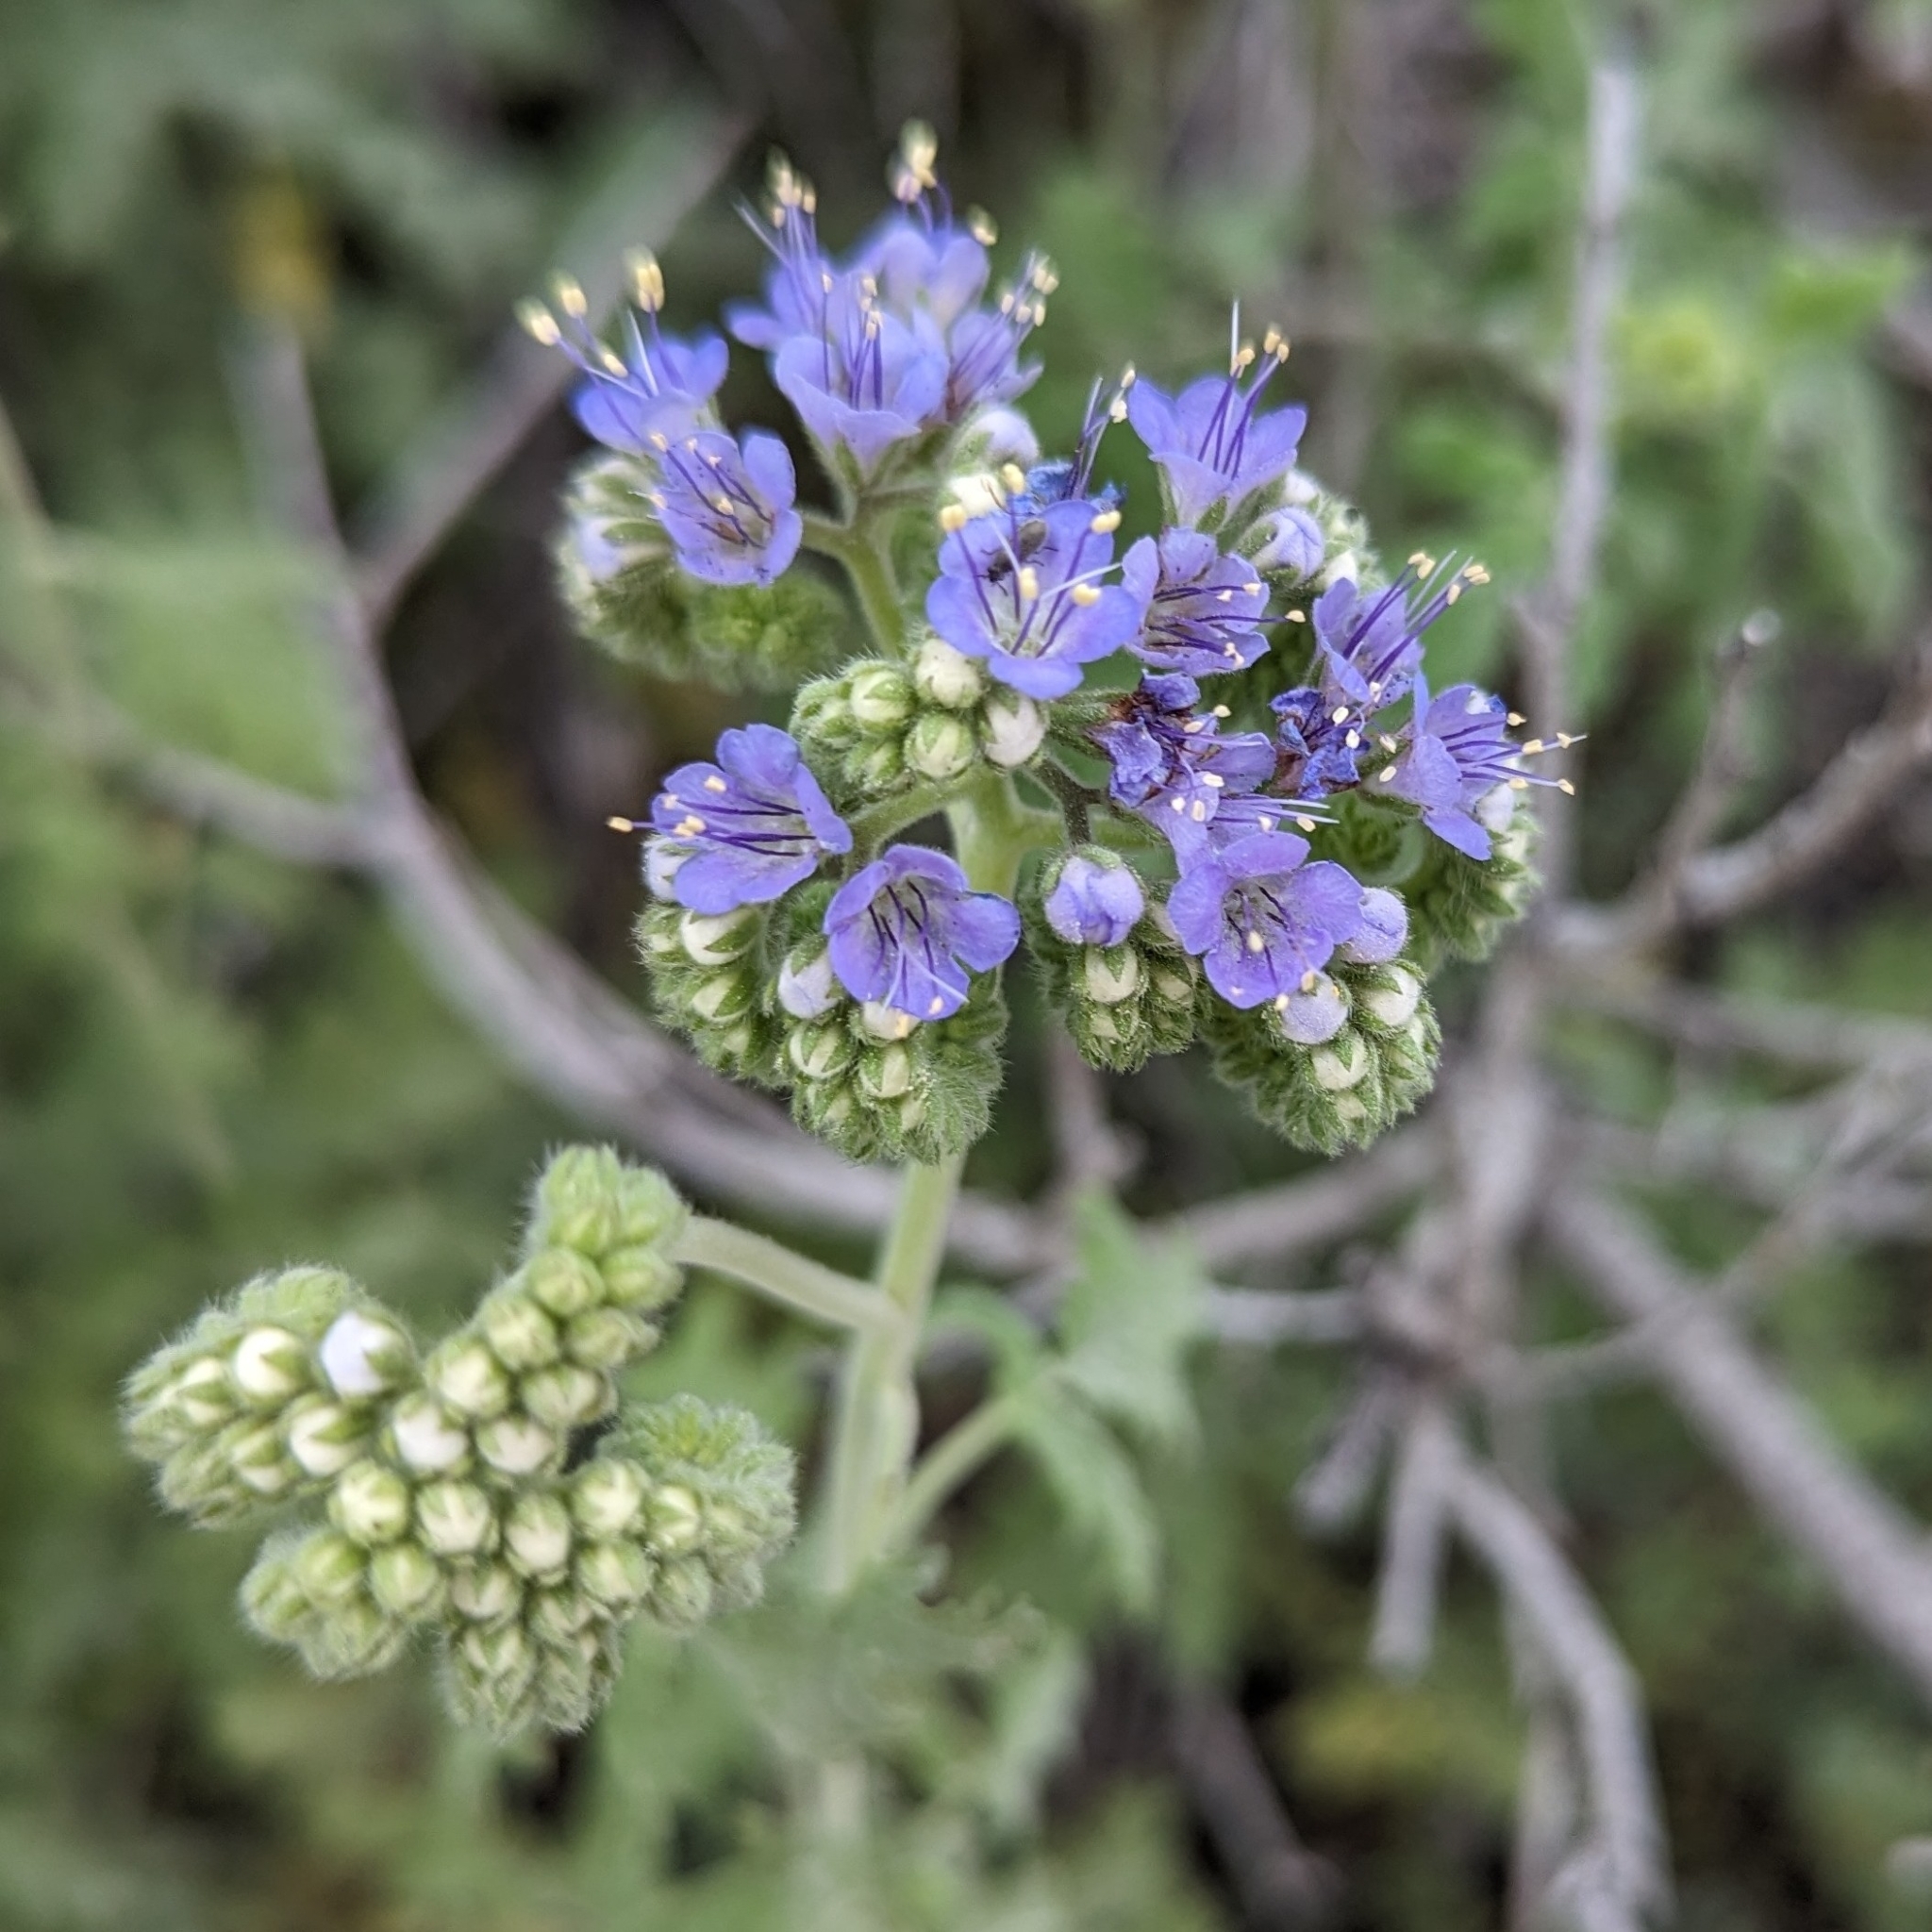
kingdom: Plantae
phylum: Tracheophyta
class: Magnoliopsida
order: Boraginales
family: Hydrophyllaceae
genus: Phacelia
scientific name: Phacelia congesta
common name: Blue curls
